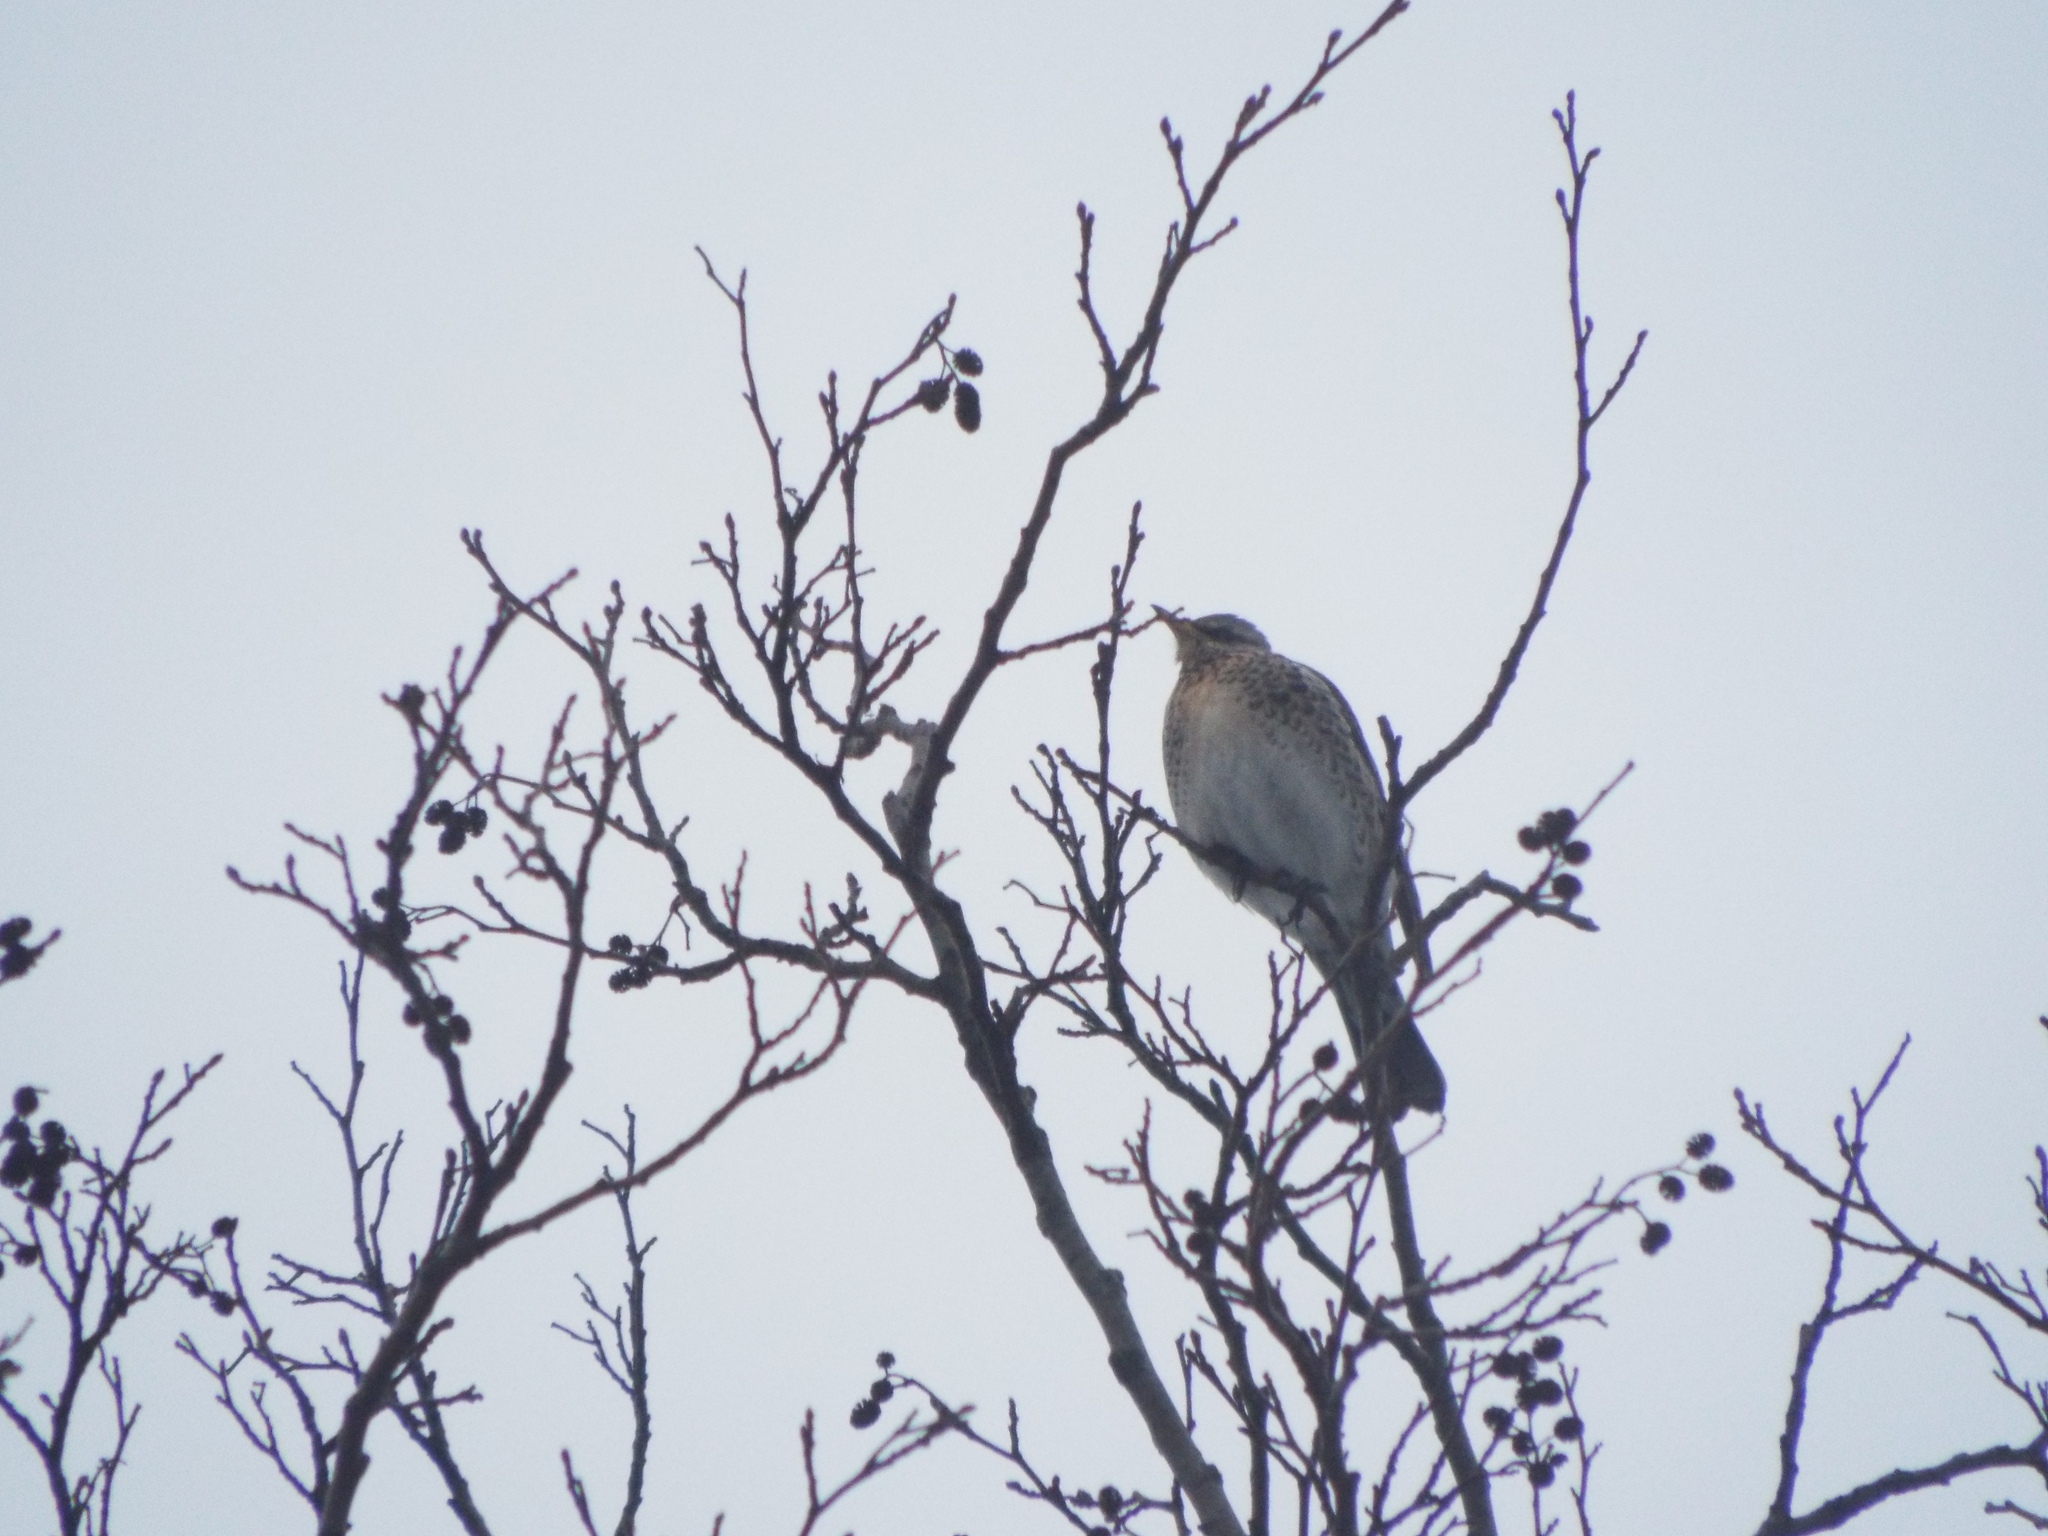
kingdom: Animalia
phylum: Chordata
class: Aves
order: Passeriformes
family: Turdidae
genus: Turdus
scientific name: Turdus pilaris
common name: Fieldfare
